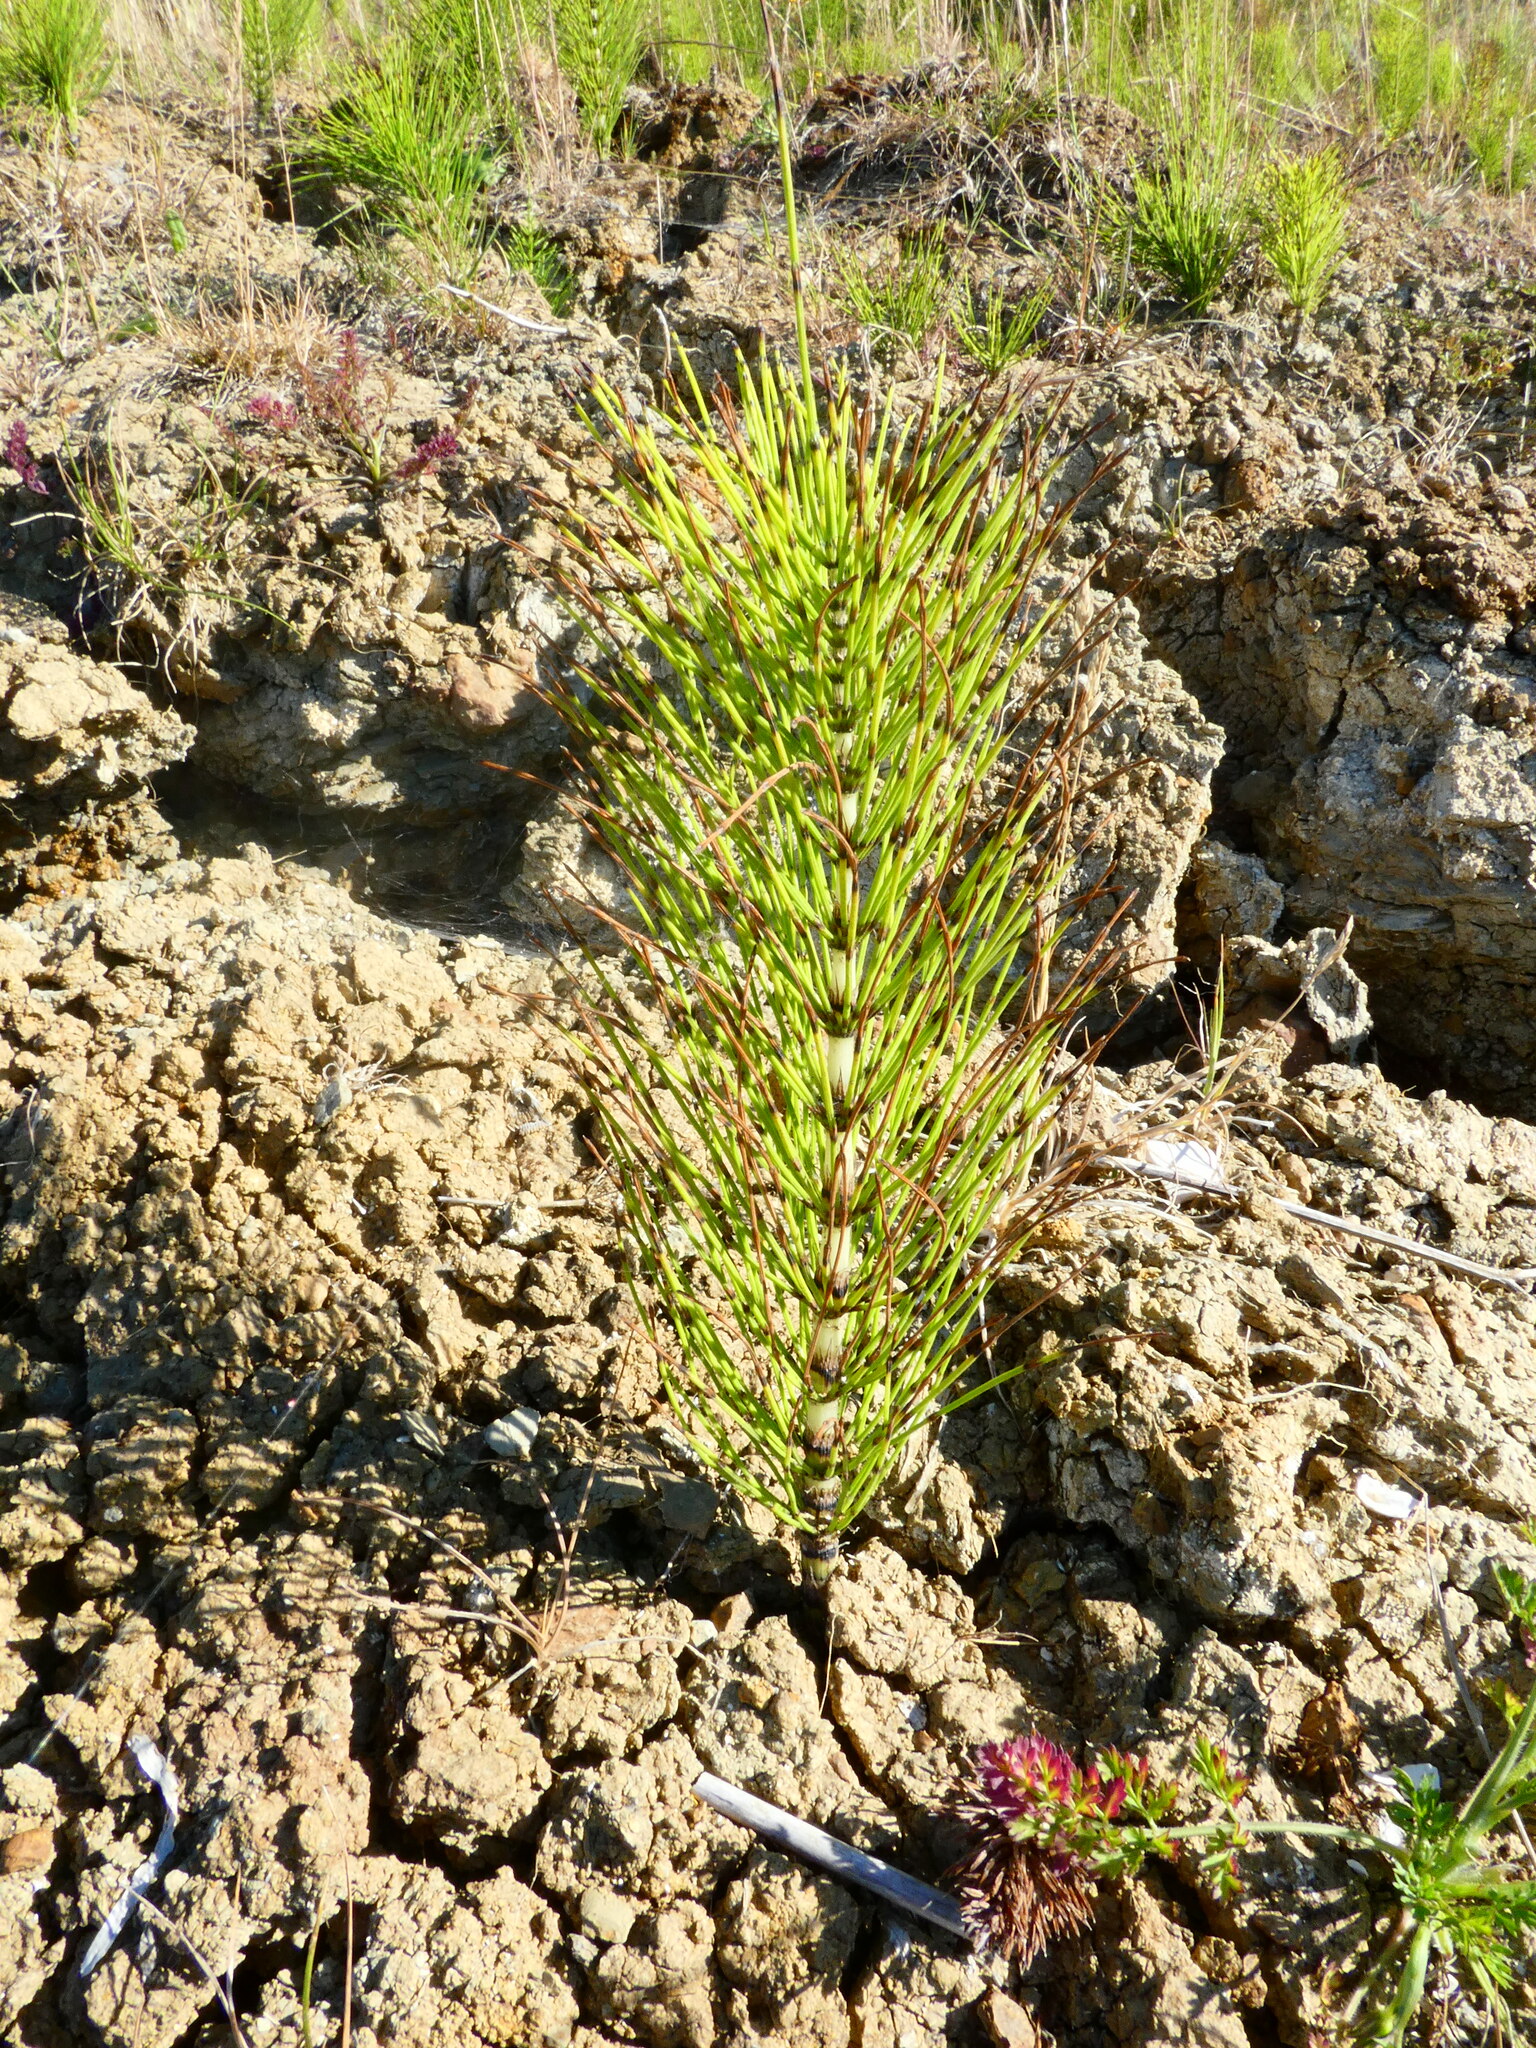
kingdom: Plantae
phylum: Tracheophyta
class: Polypodiopsida
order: Equisetales
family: Equisetaceae
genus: Equisetum
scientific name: Equisetum telmateia
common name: Great horsetail
